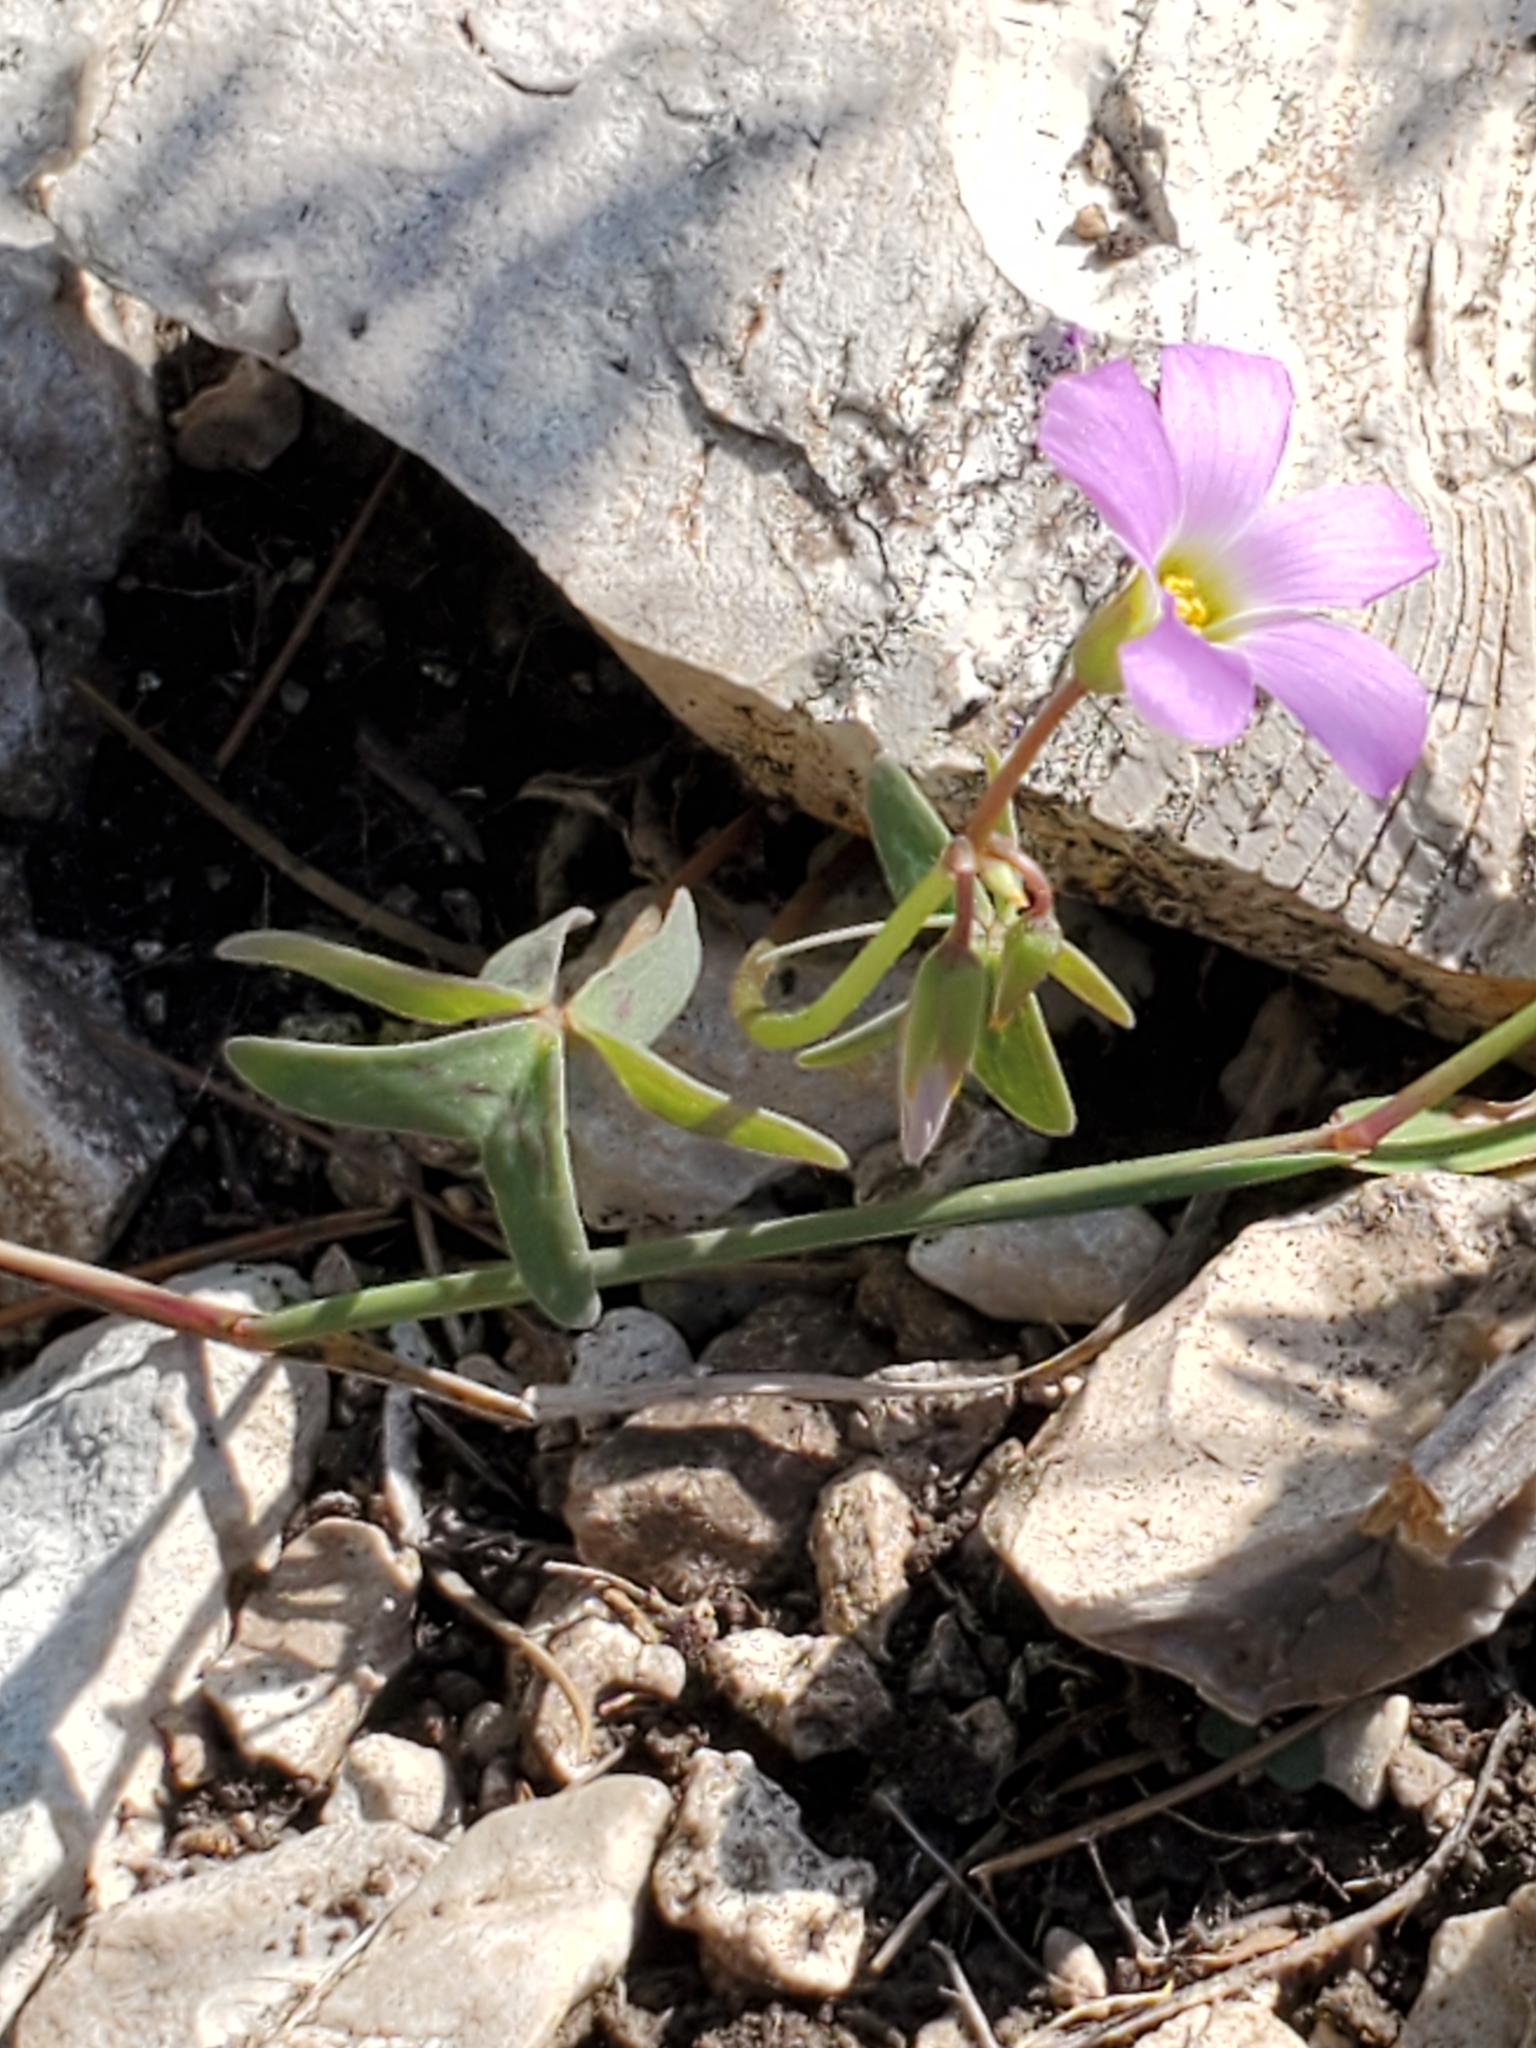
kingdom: Plantae
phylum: Tracheophyta
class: Magnoliopsida
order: Oxalidales
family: Oxalidaceae
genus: Oxalis
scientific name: Oxalis drummondii
